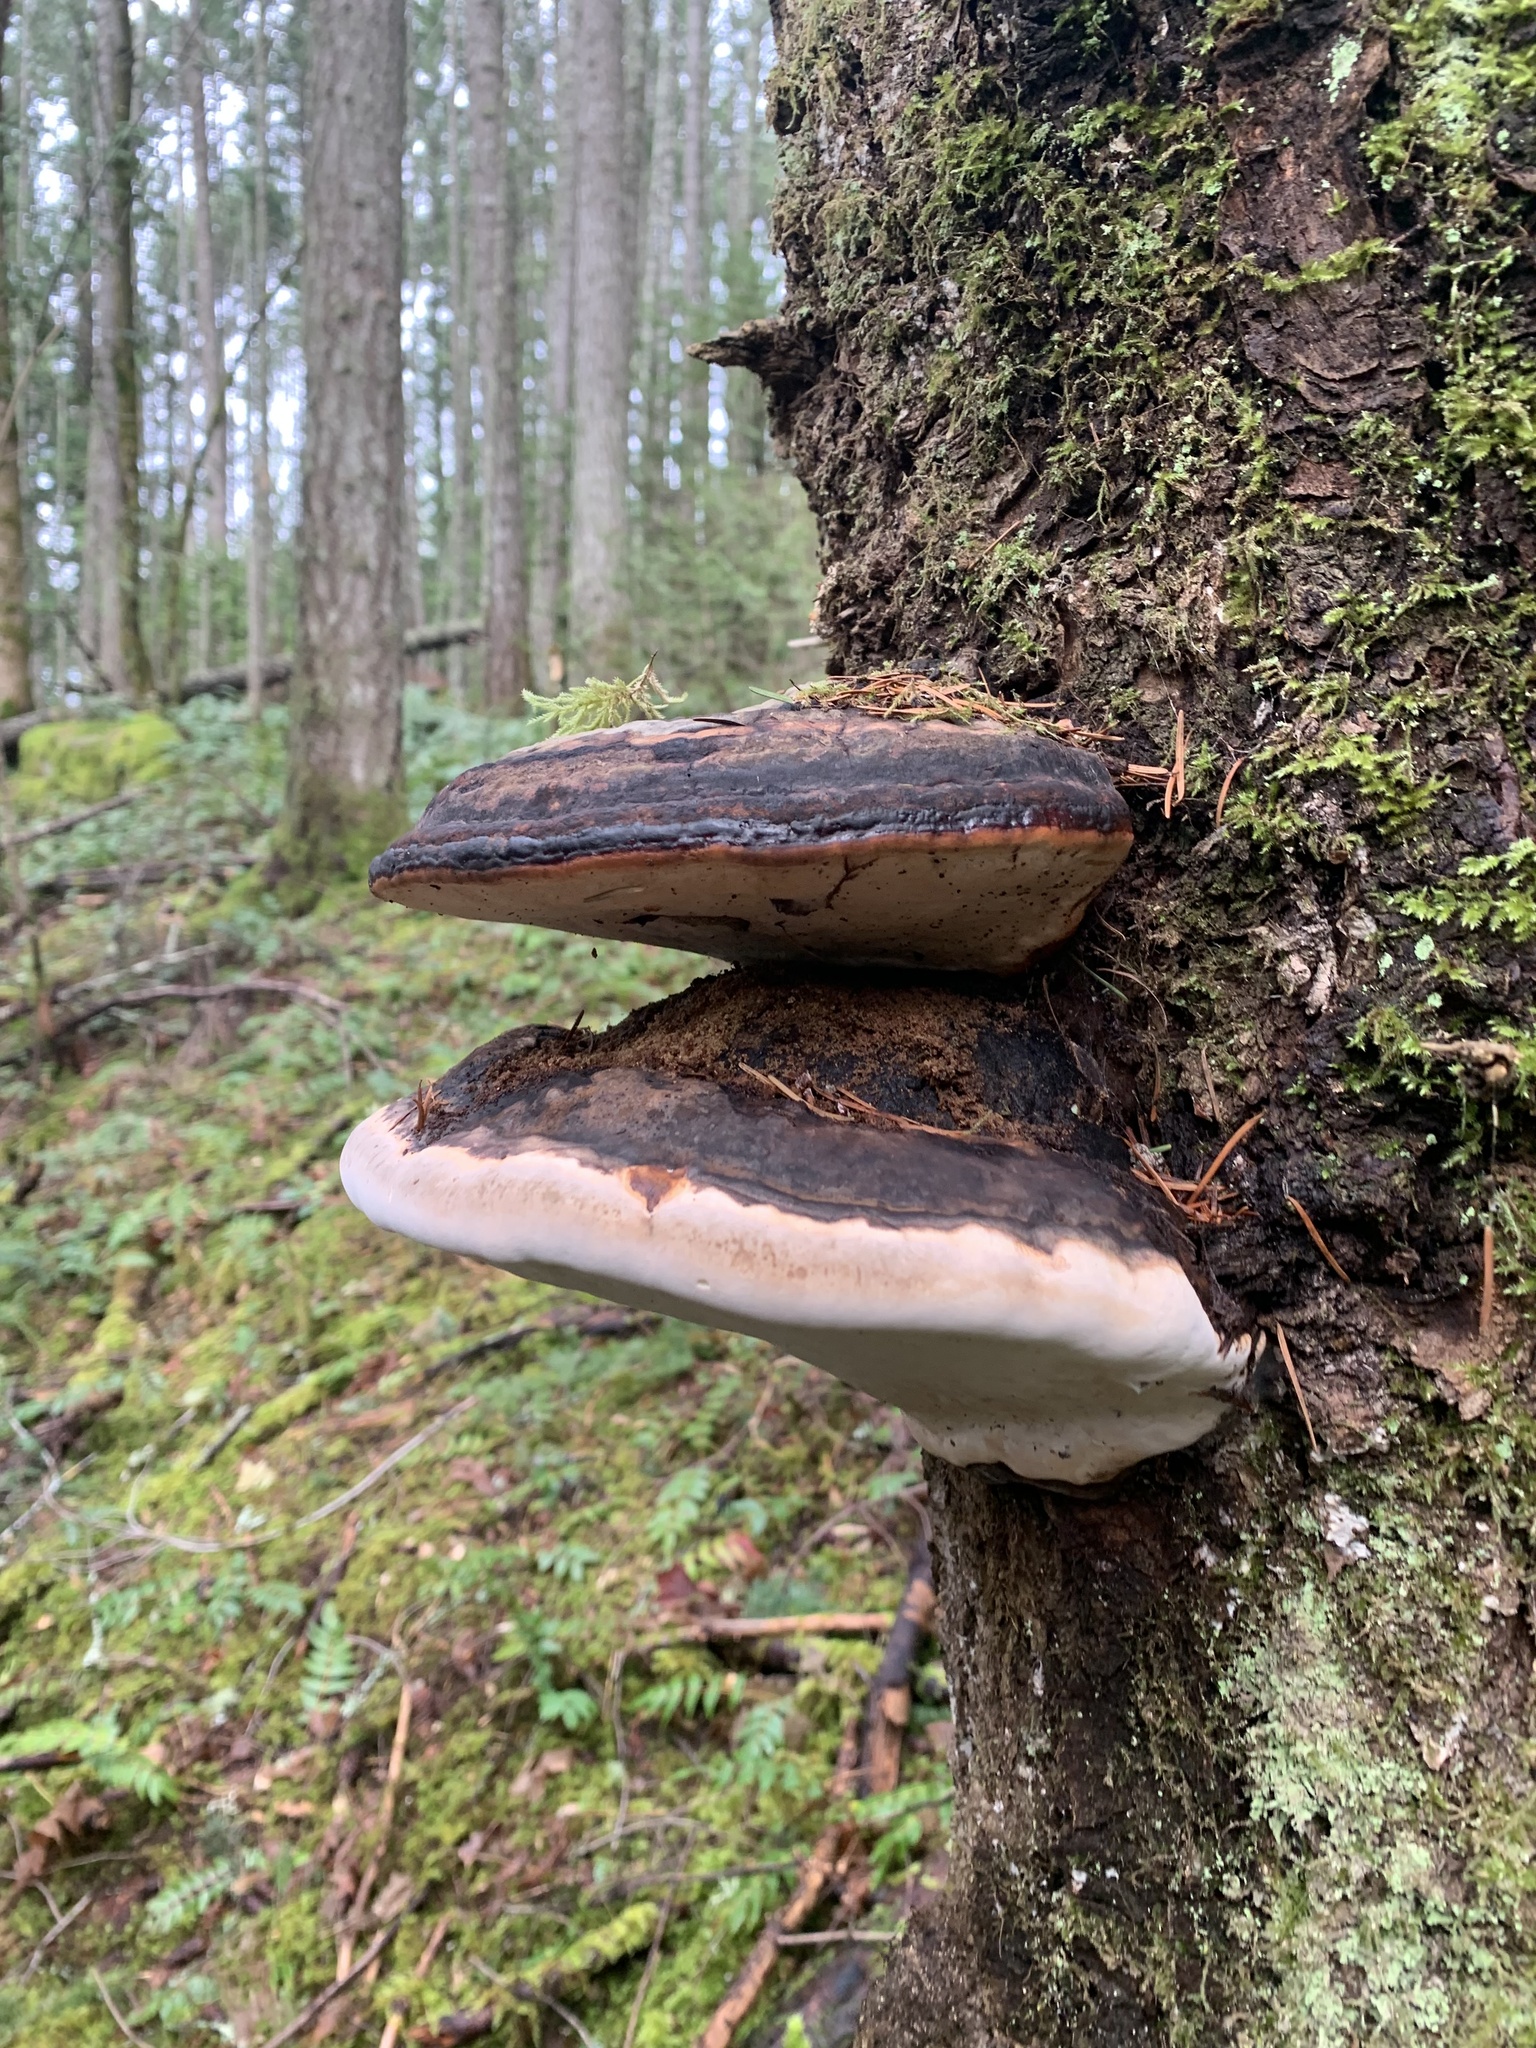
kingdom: Fungi
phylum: Basidiomycota
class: Agaricomycetes
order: Polyporales
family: Fomitopsidaceae
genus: Fomitopsis
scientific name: Fomitopsis mounceae
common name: Northern red belt
